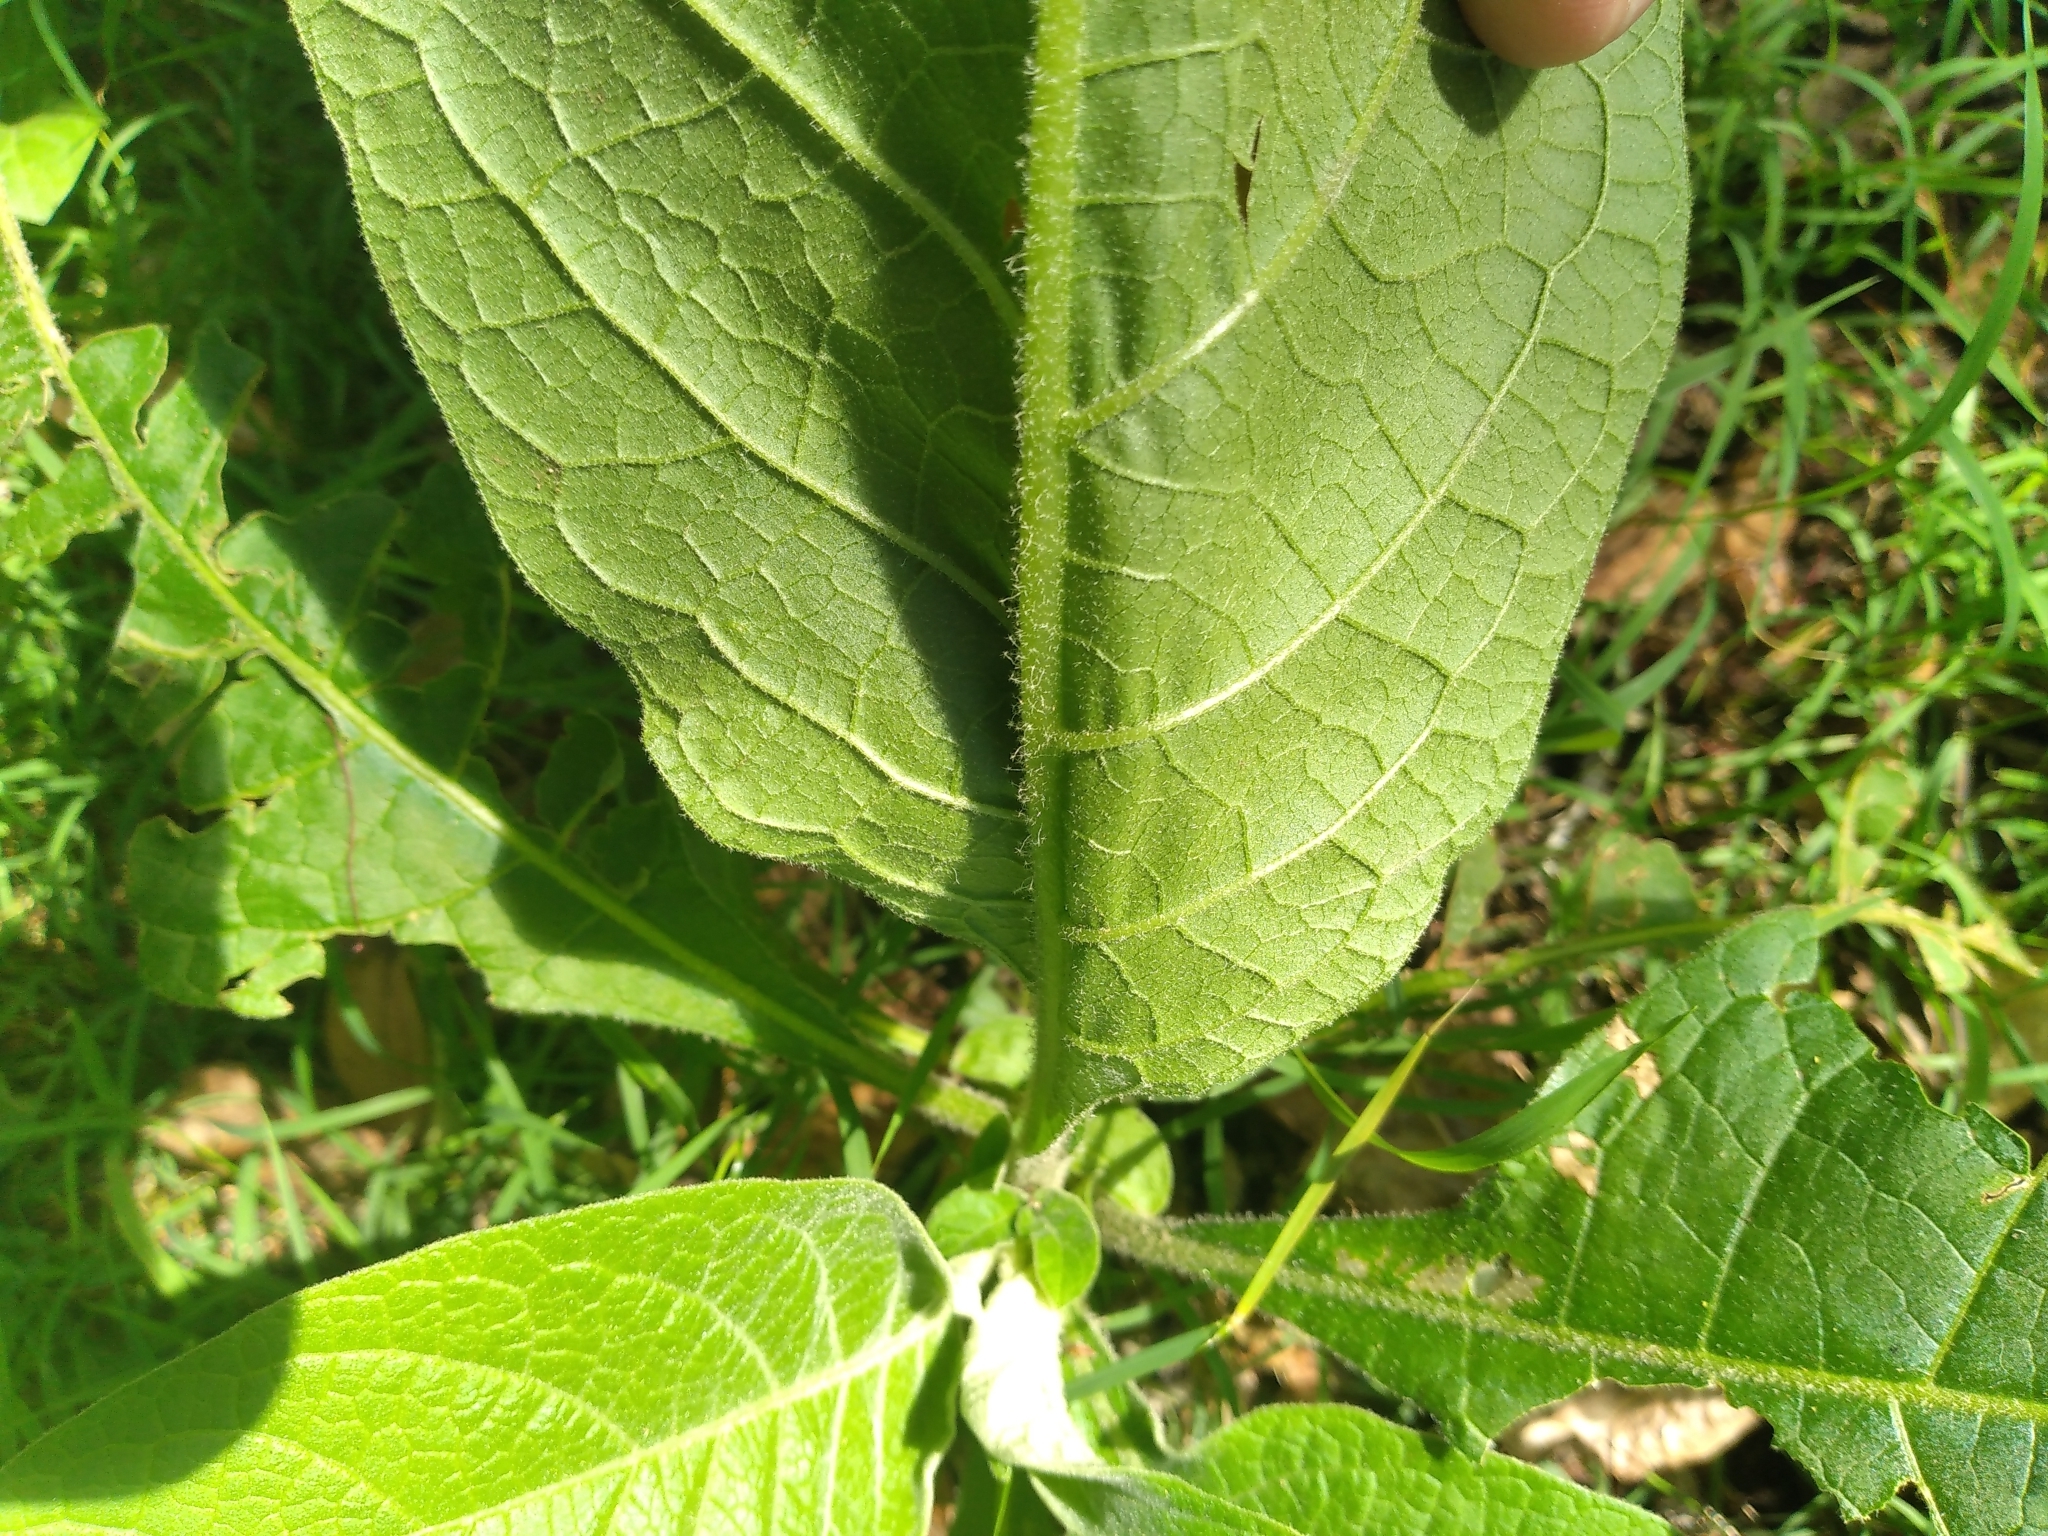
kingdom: Plantae
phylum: Tracheophyta
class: Magnoliopsida
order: Solanales
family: Solanaceae
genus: Solanum
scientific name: Solanum mauritianum
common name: Earleaf nightshade
